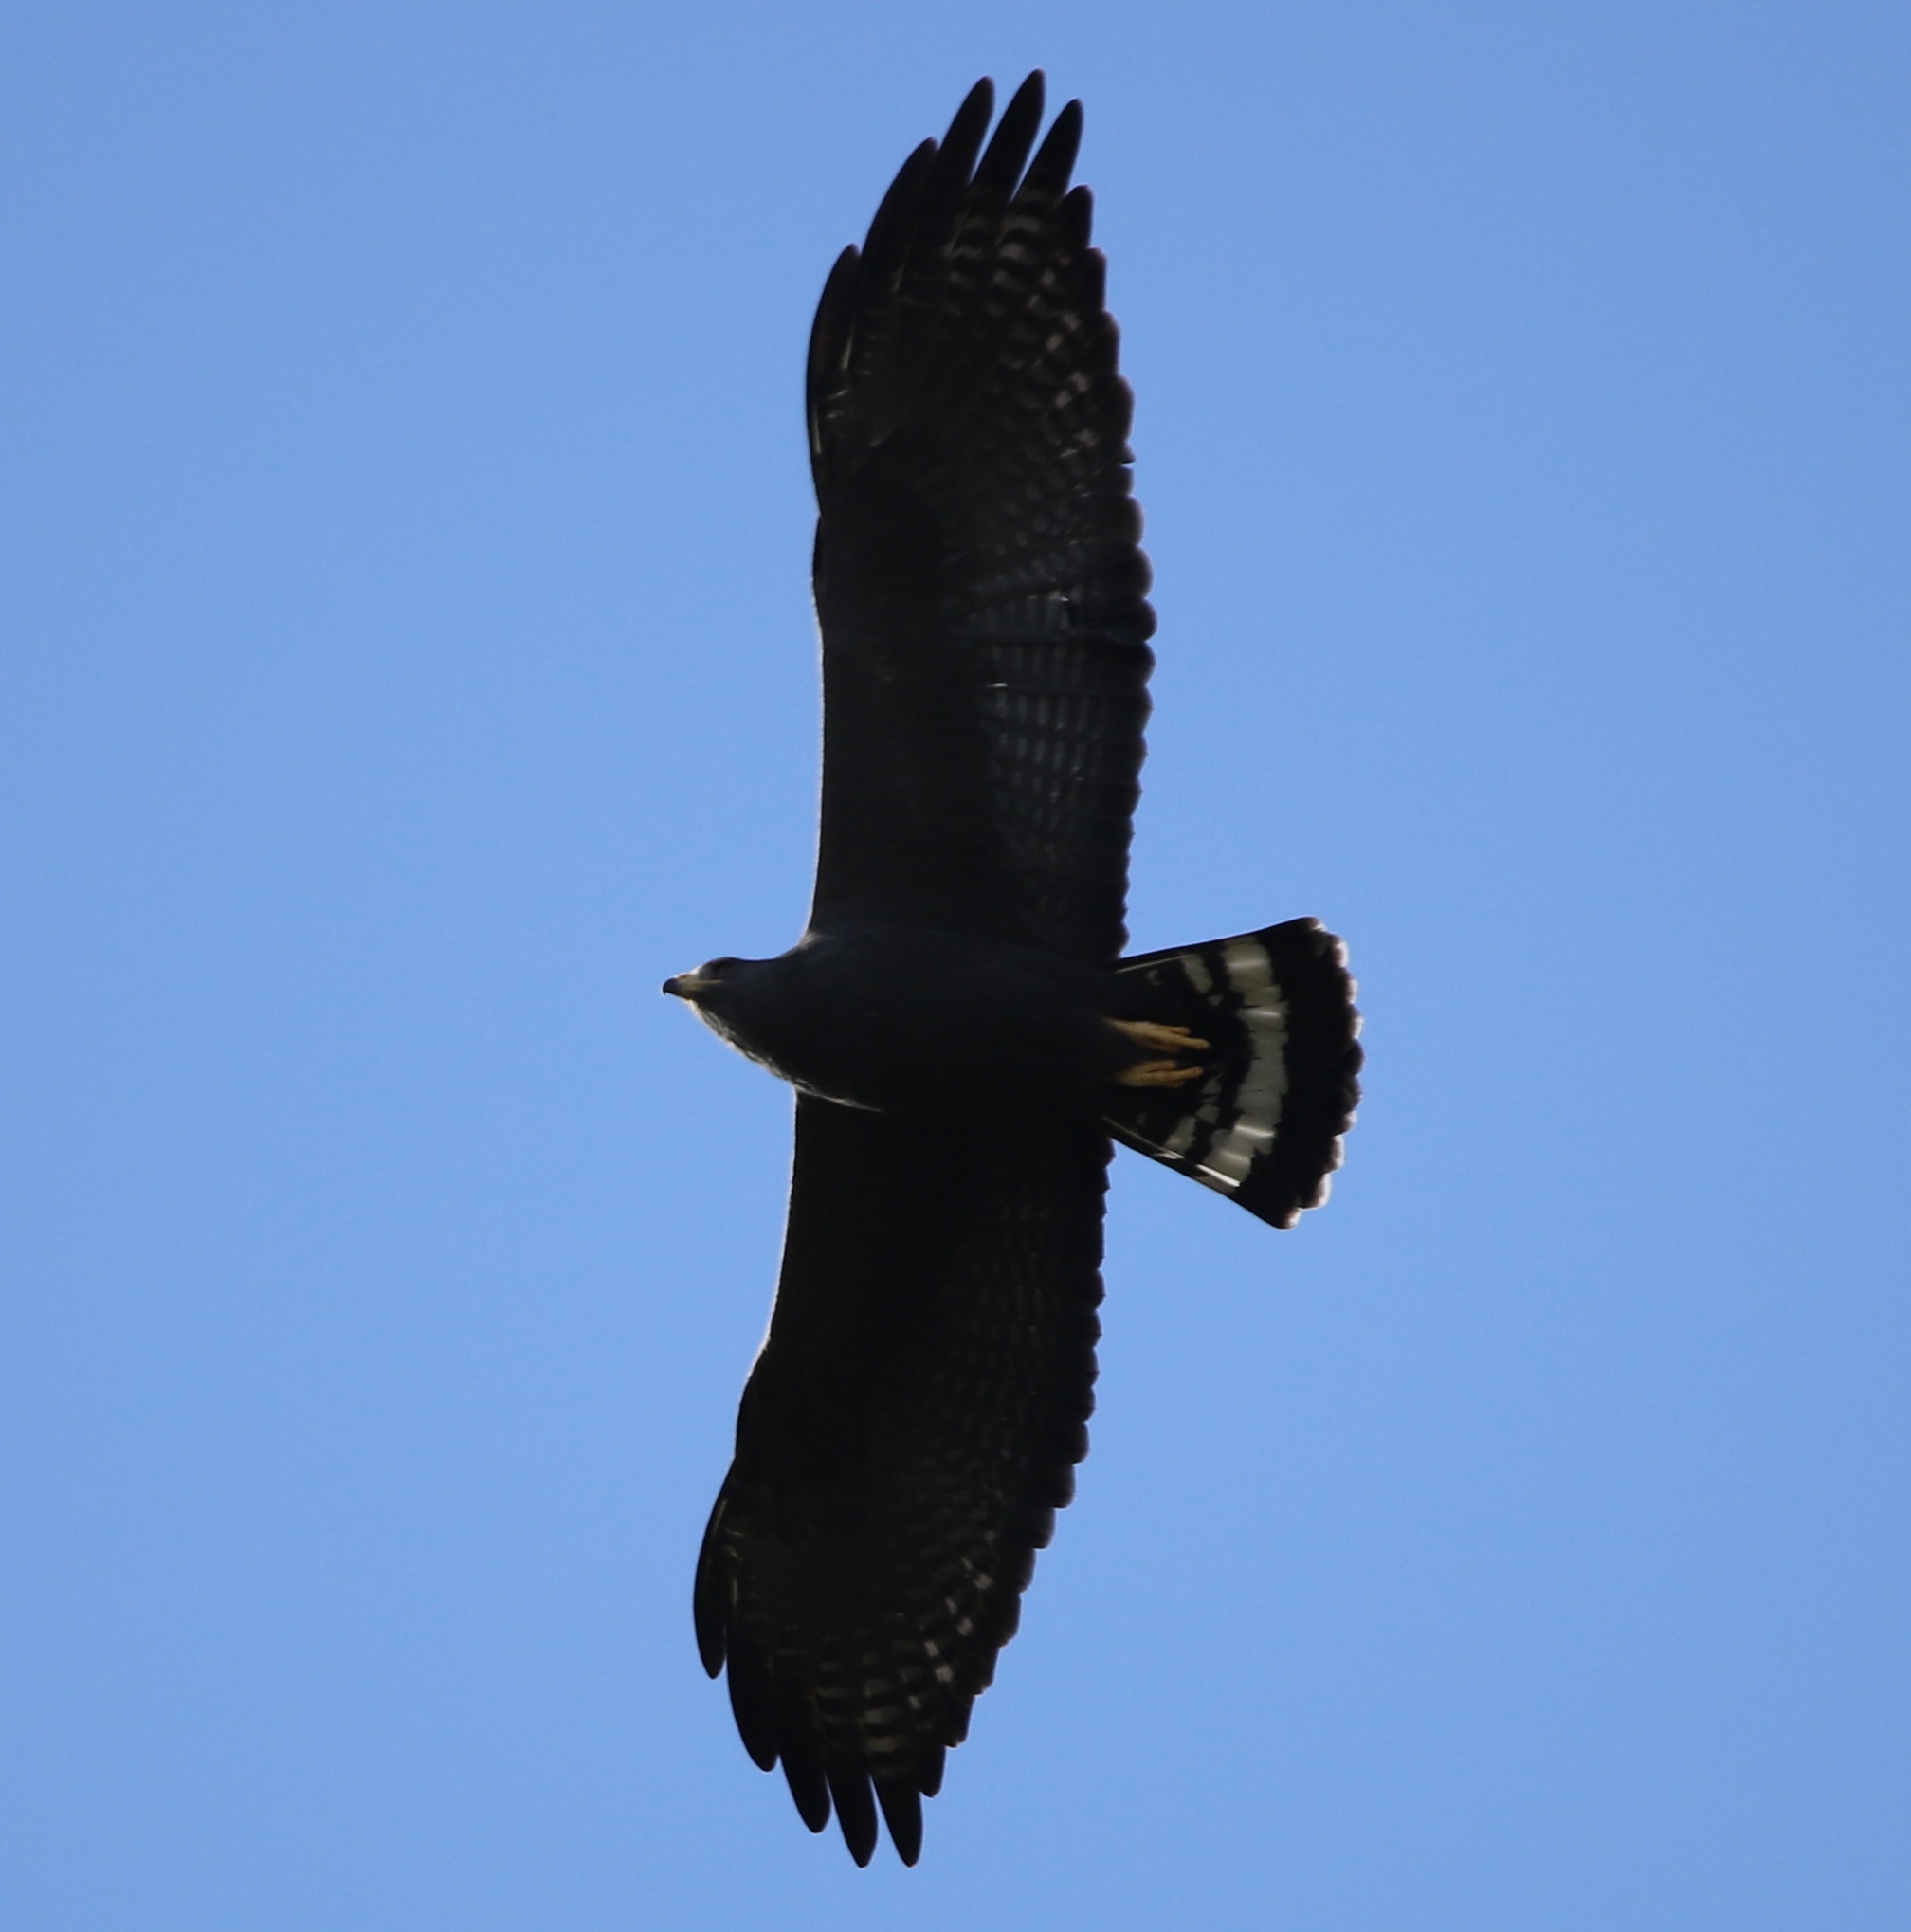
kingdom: Animalia
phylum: Chordata
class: Aves
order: Accipitriformes
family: Accipitridae
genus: Buteo
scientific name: Buteo albonotatus
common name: Zone-tailed hawk
